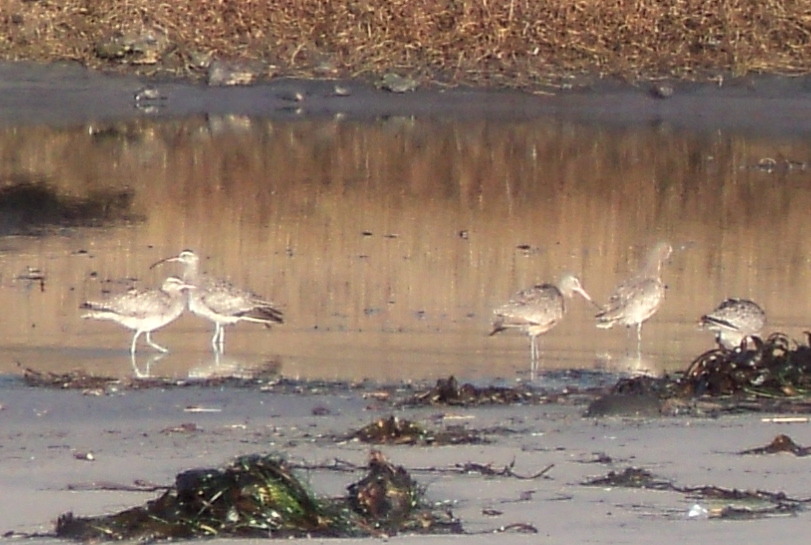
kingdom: Animalia
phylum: Chordata
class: Aves
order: Charadriiformes
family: Scolopacidae
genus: Numenius
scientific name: Numenius phaeopus
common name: Whimbrel
